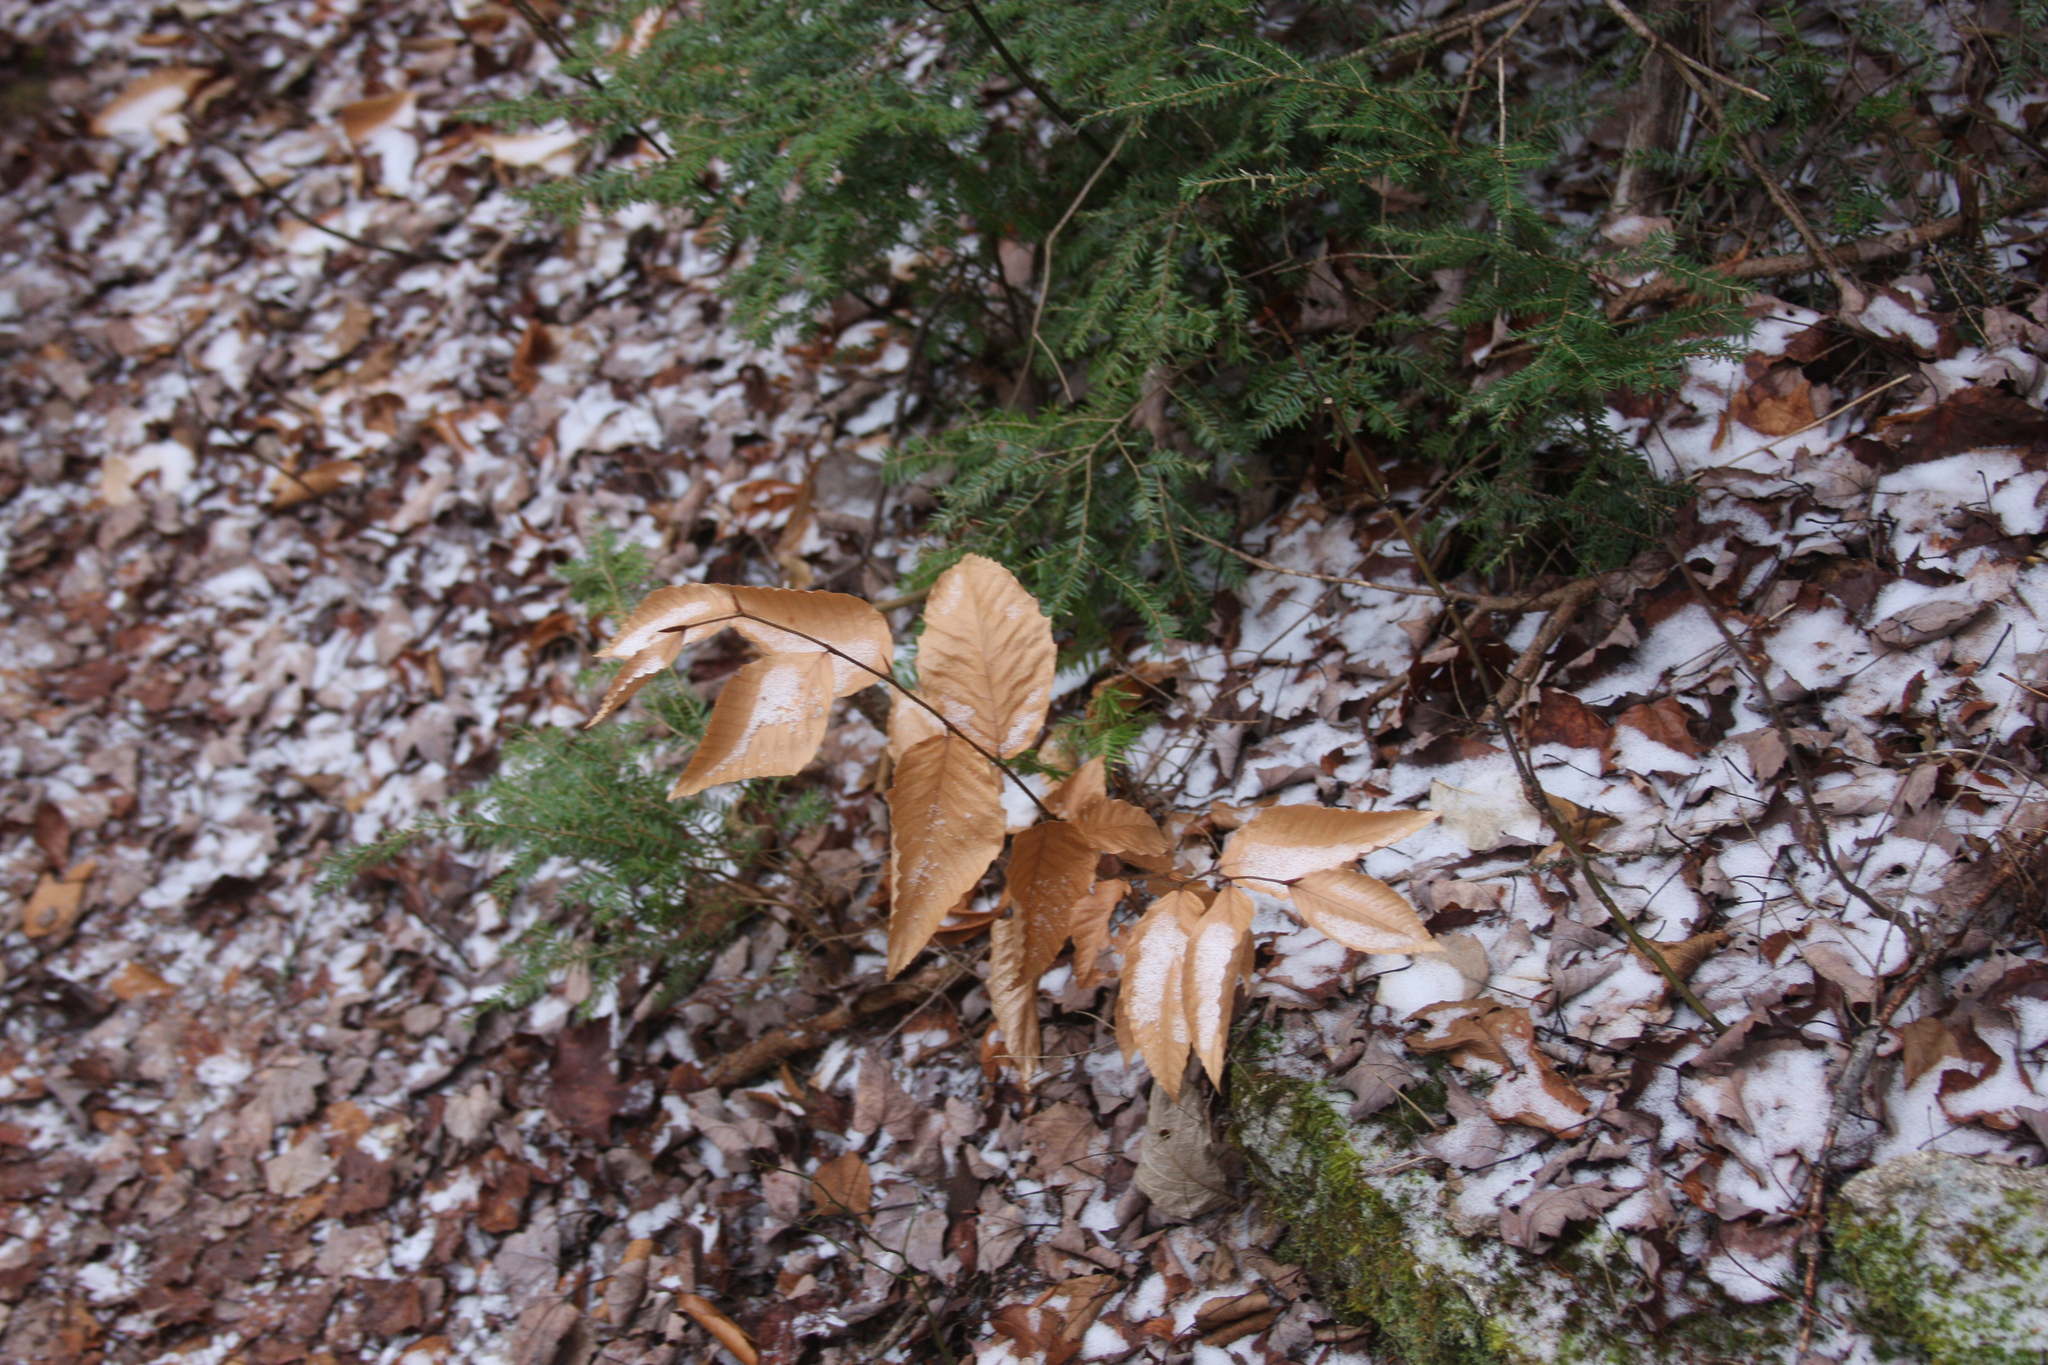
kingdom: Plantae
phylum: Tracheophyta
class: Magnoliopsida
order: Fagales
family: Fagaceae
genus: Fagus
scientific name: Fagus grandifolia
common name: American beech
